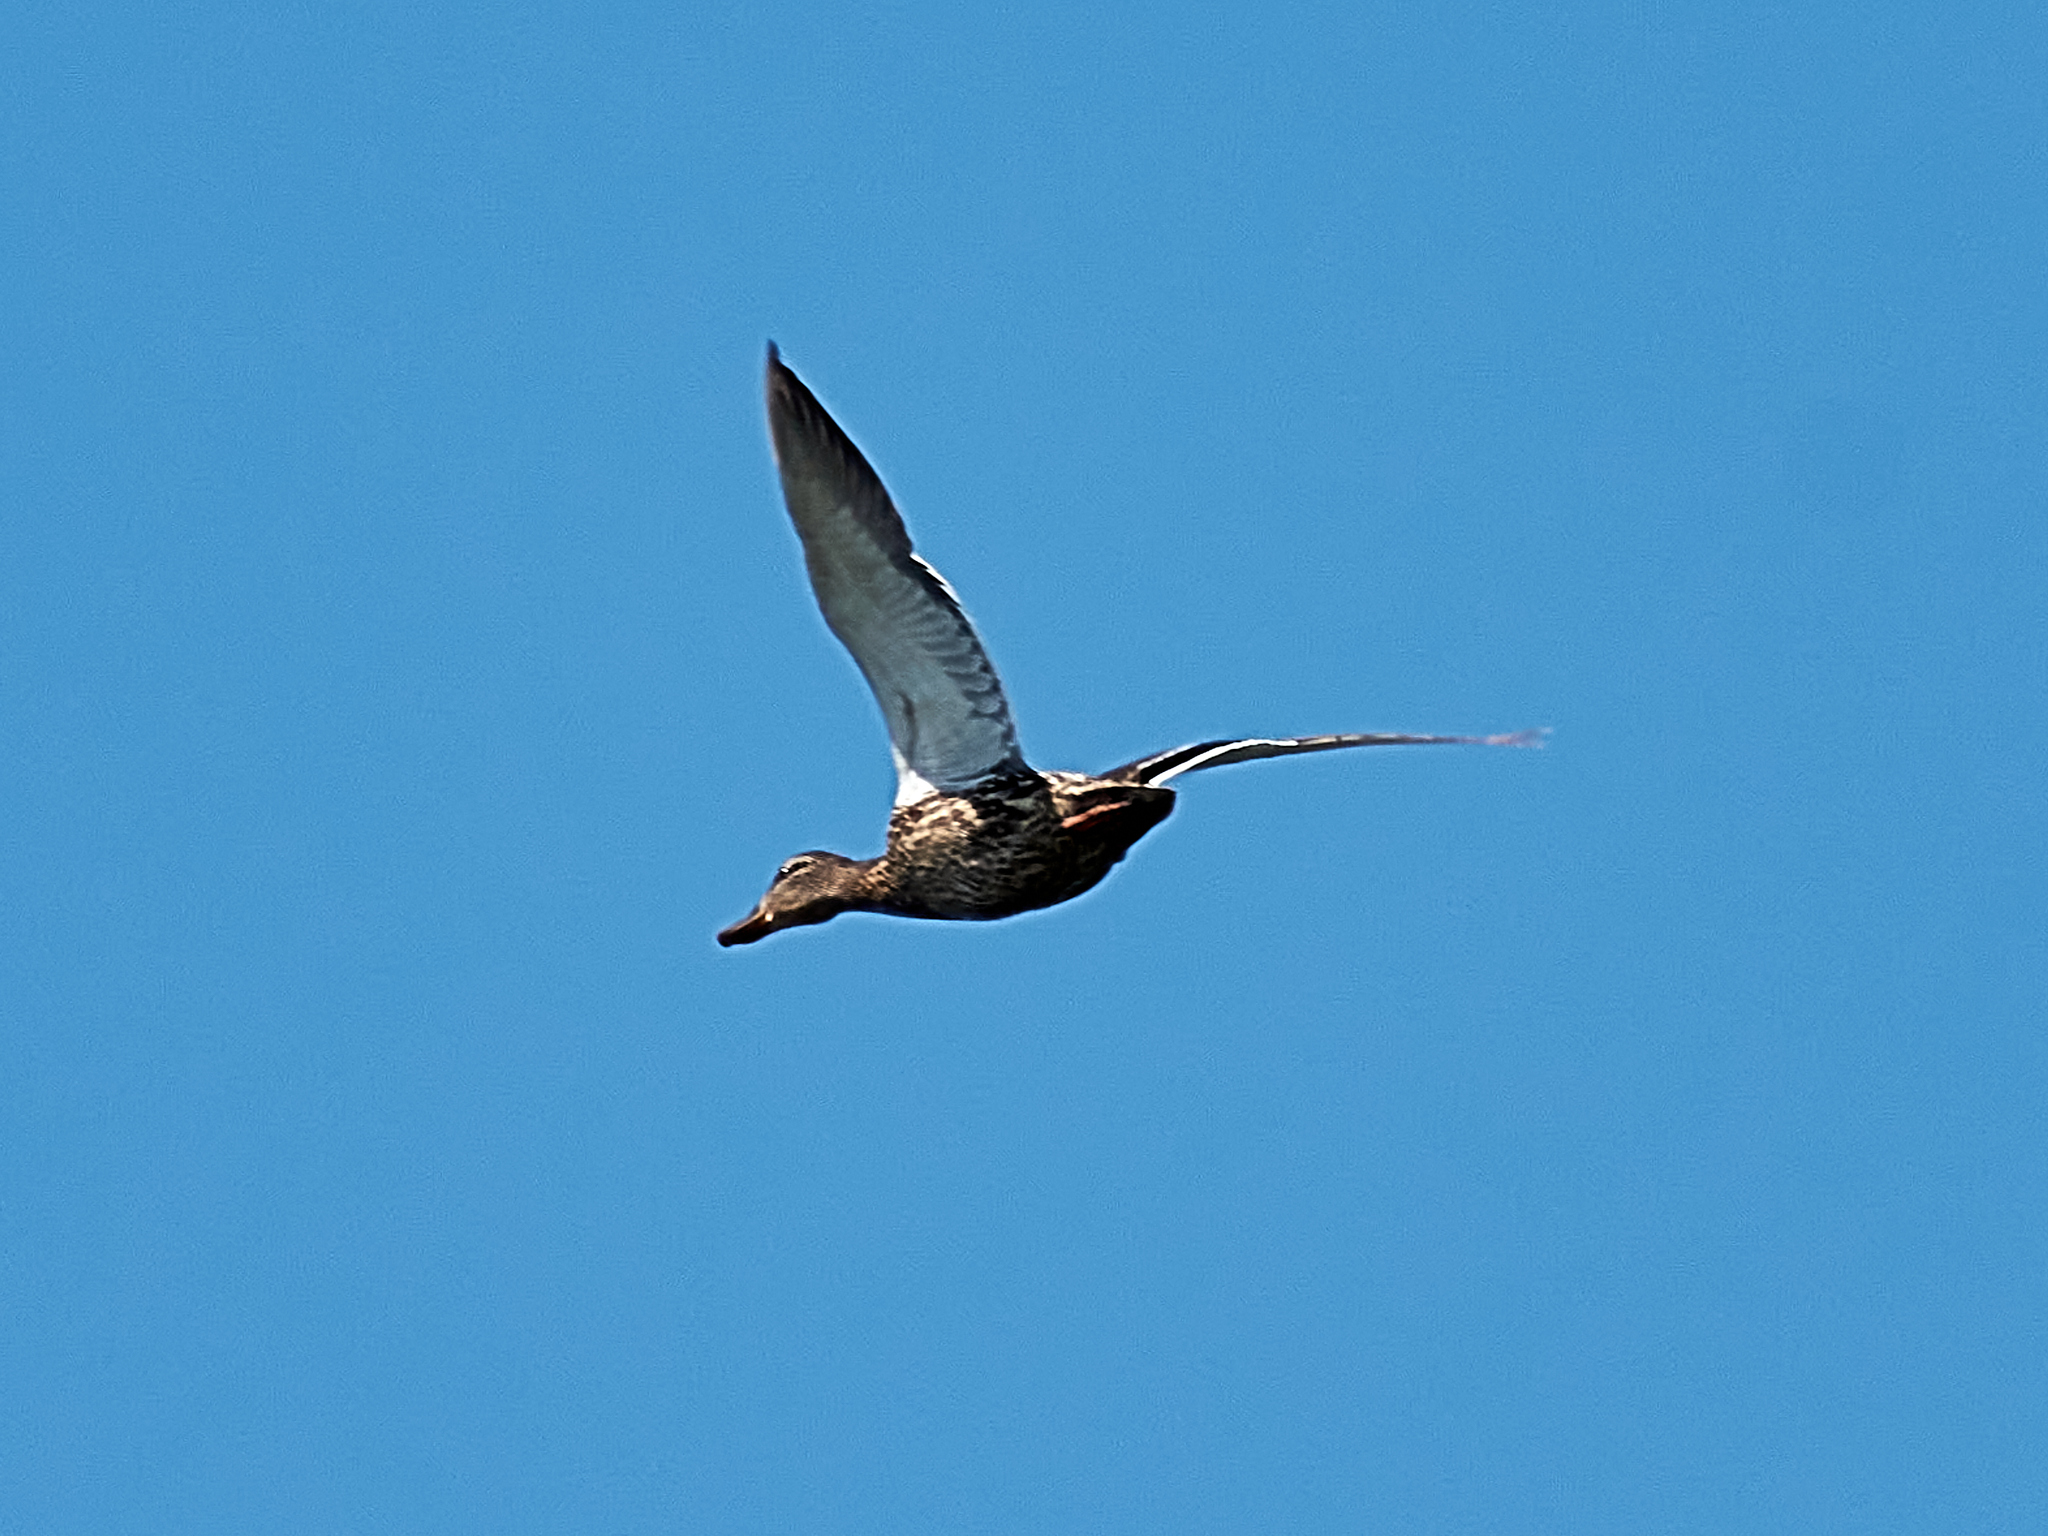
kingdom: Animalia
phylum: Chordata
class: Aves
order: Anseriformes
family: Anatidae
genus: Spatula
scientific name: Spatula querquedula
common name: Garganey
